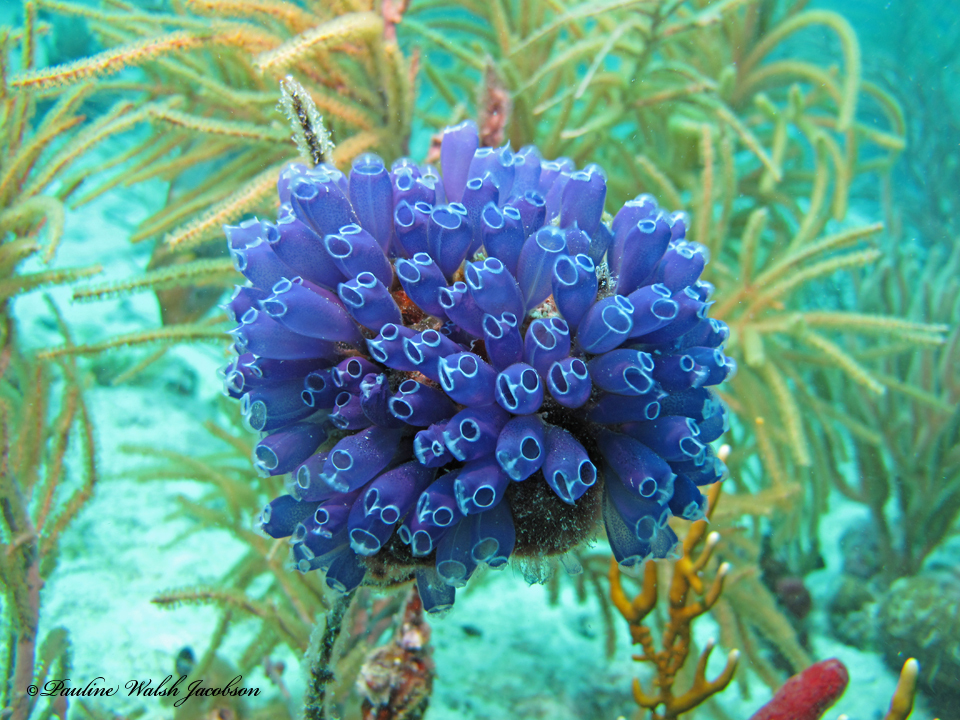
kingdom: Animalia
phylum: Chordata
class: Ascidiacea
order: Aplousobranchia
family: Clavelinidae
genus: Clavelina
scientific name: Clavelina puertosecensis
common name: Blue bell tunicate
